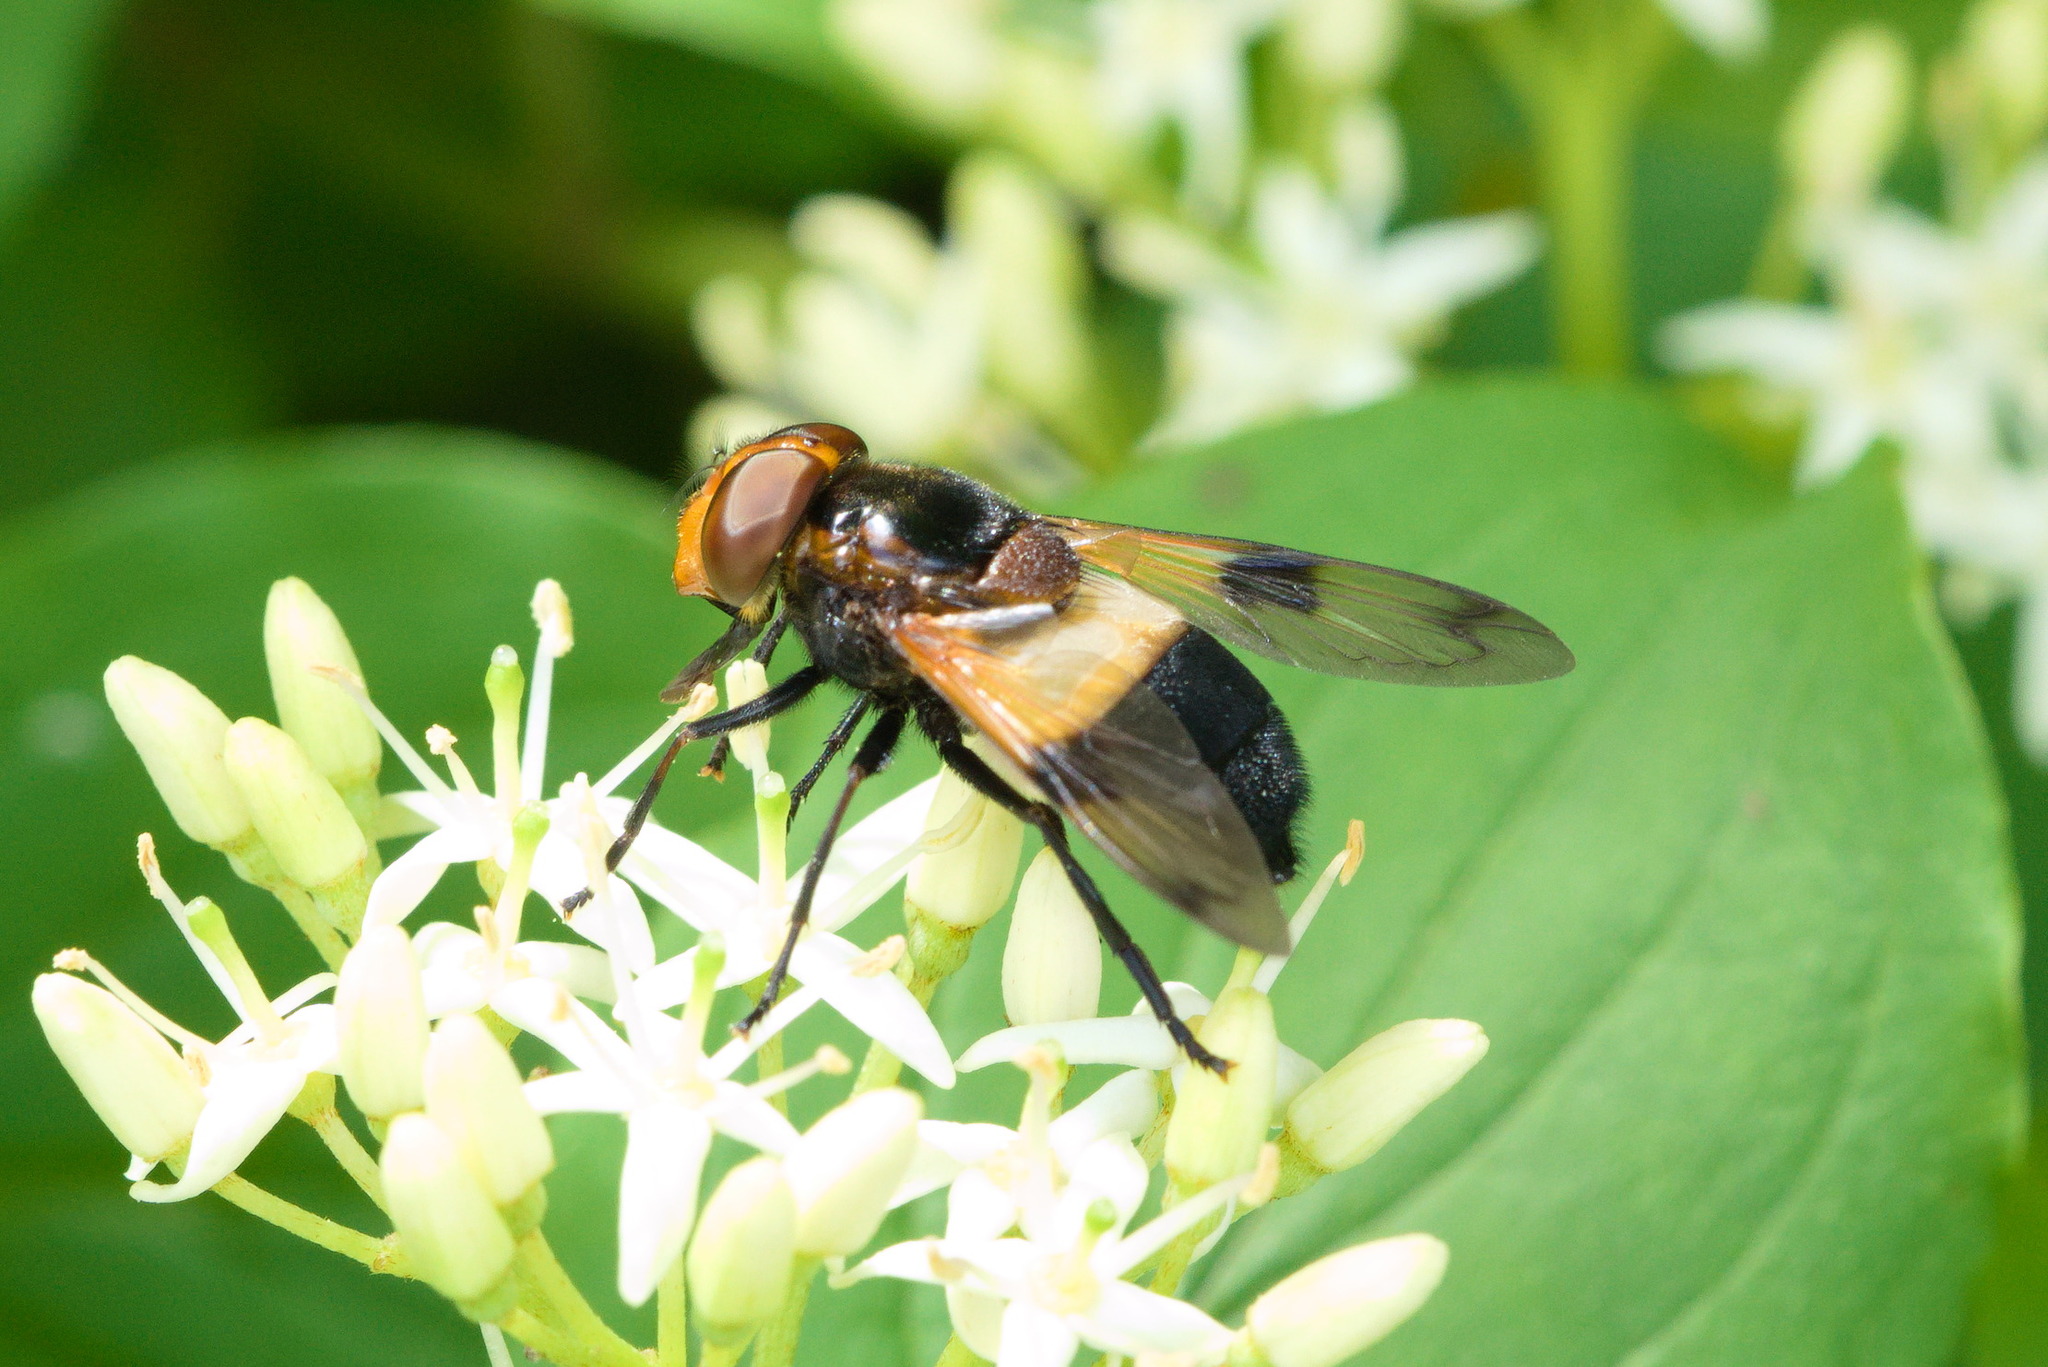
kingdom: Animalia
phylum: Arthropoda
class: Insecta
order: Diptera
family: Syrphidae
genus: Volucella
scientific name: Volucella pellucens
